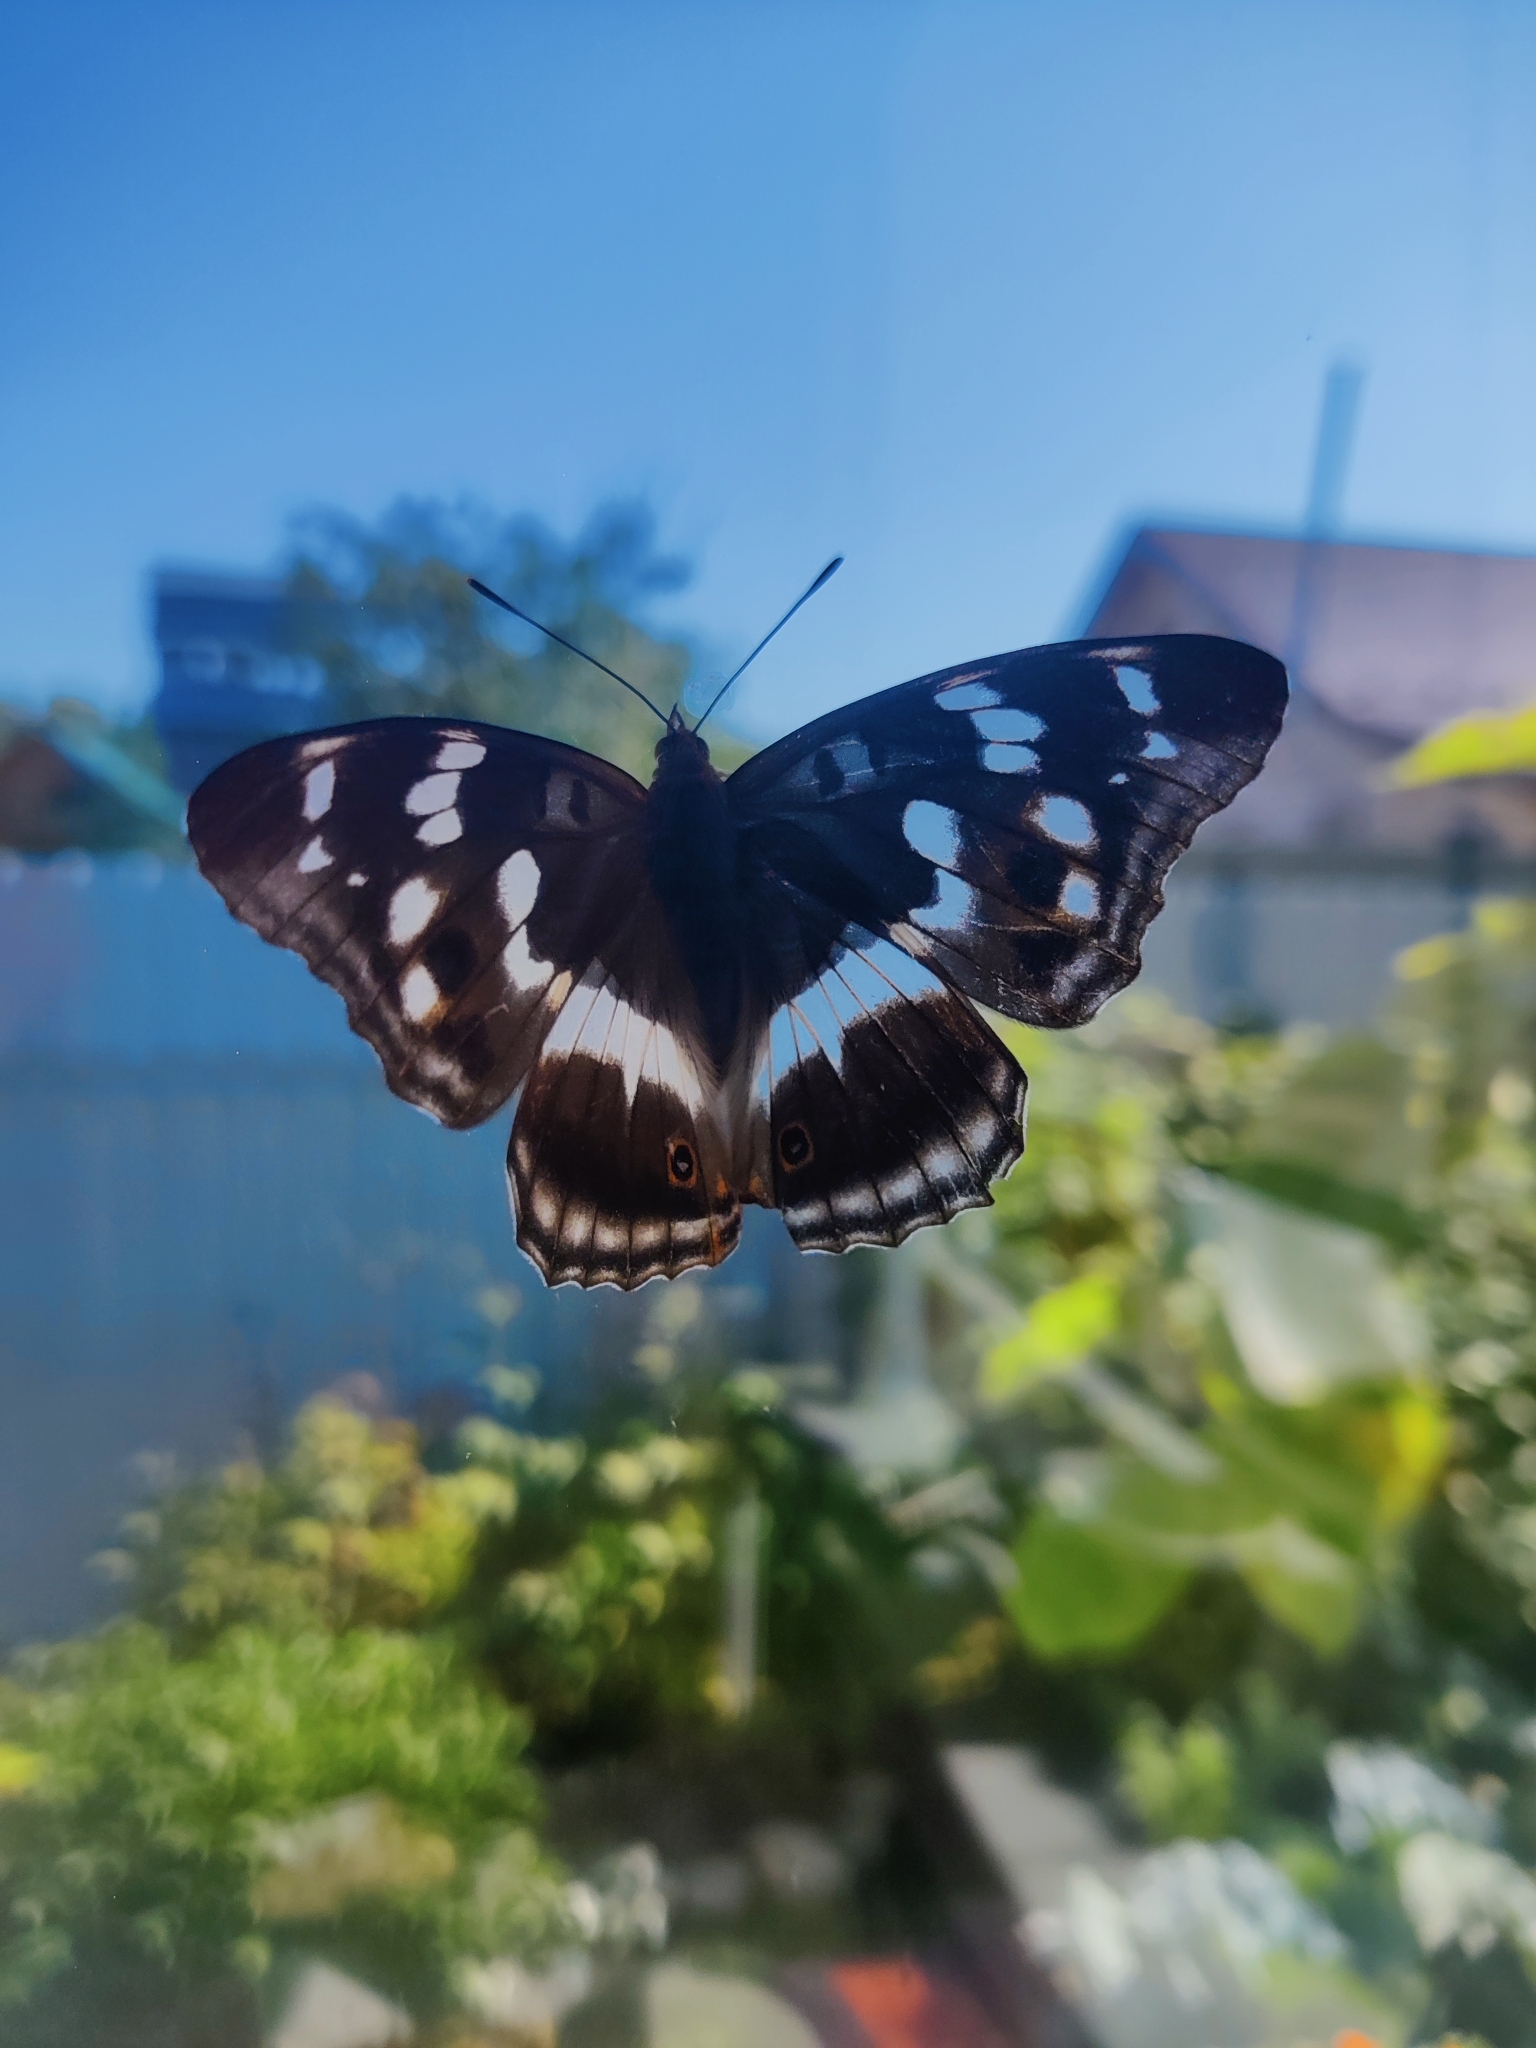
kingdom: Animalia
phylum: Arthropoda
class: Insecta
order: Lepidoptera
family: Nymphalidae
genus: Apatura
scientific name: Apatura iris
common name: Purple emperor
